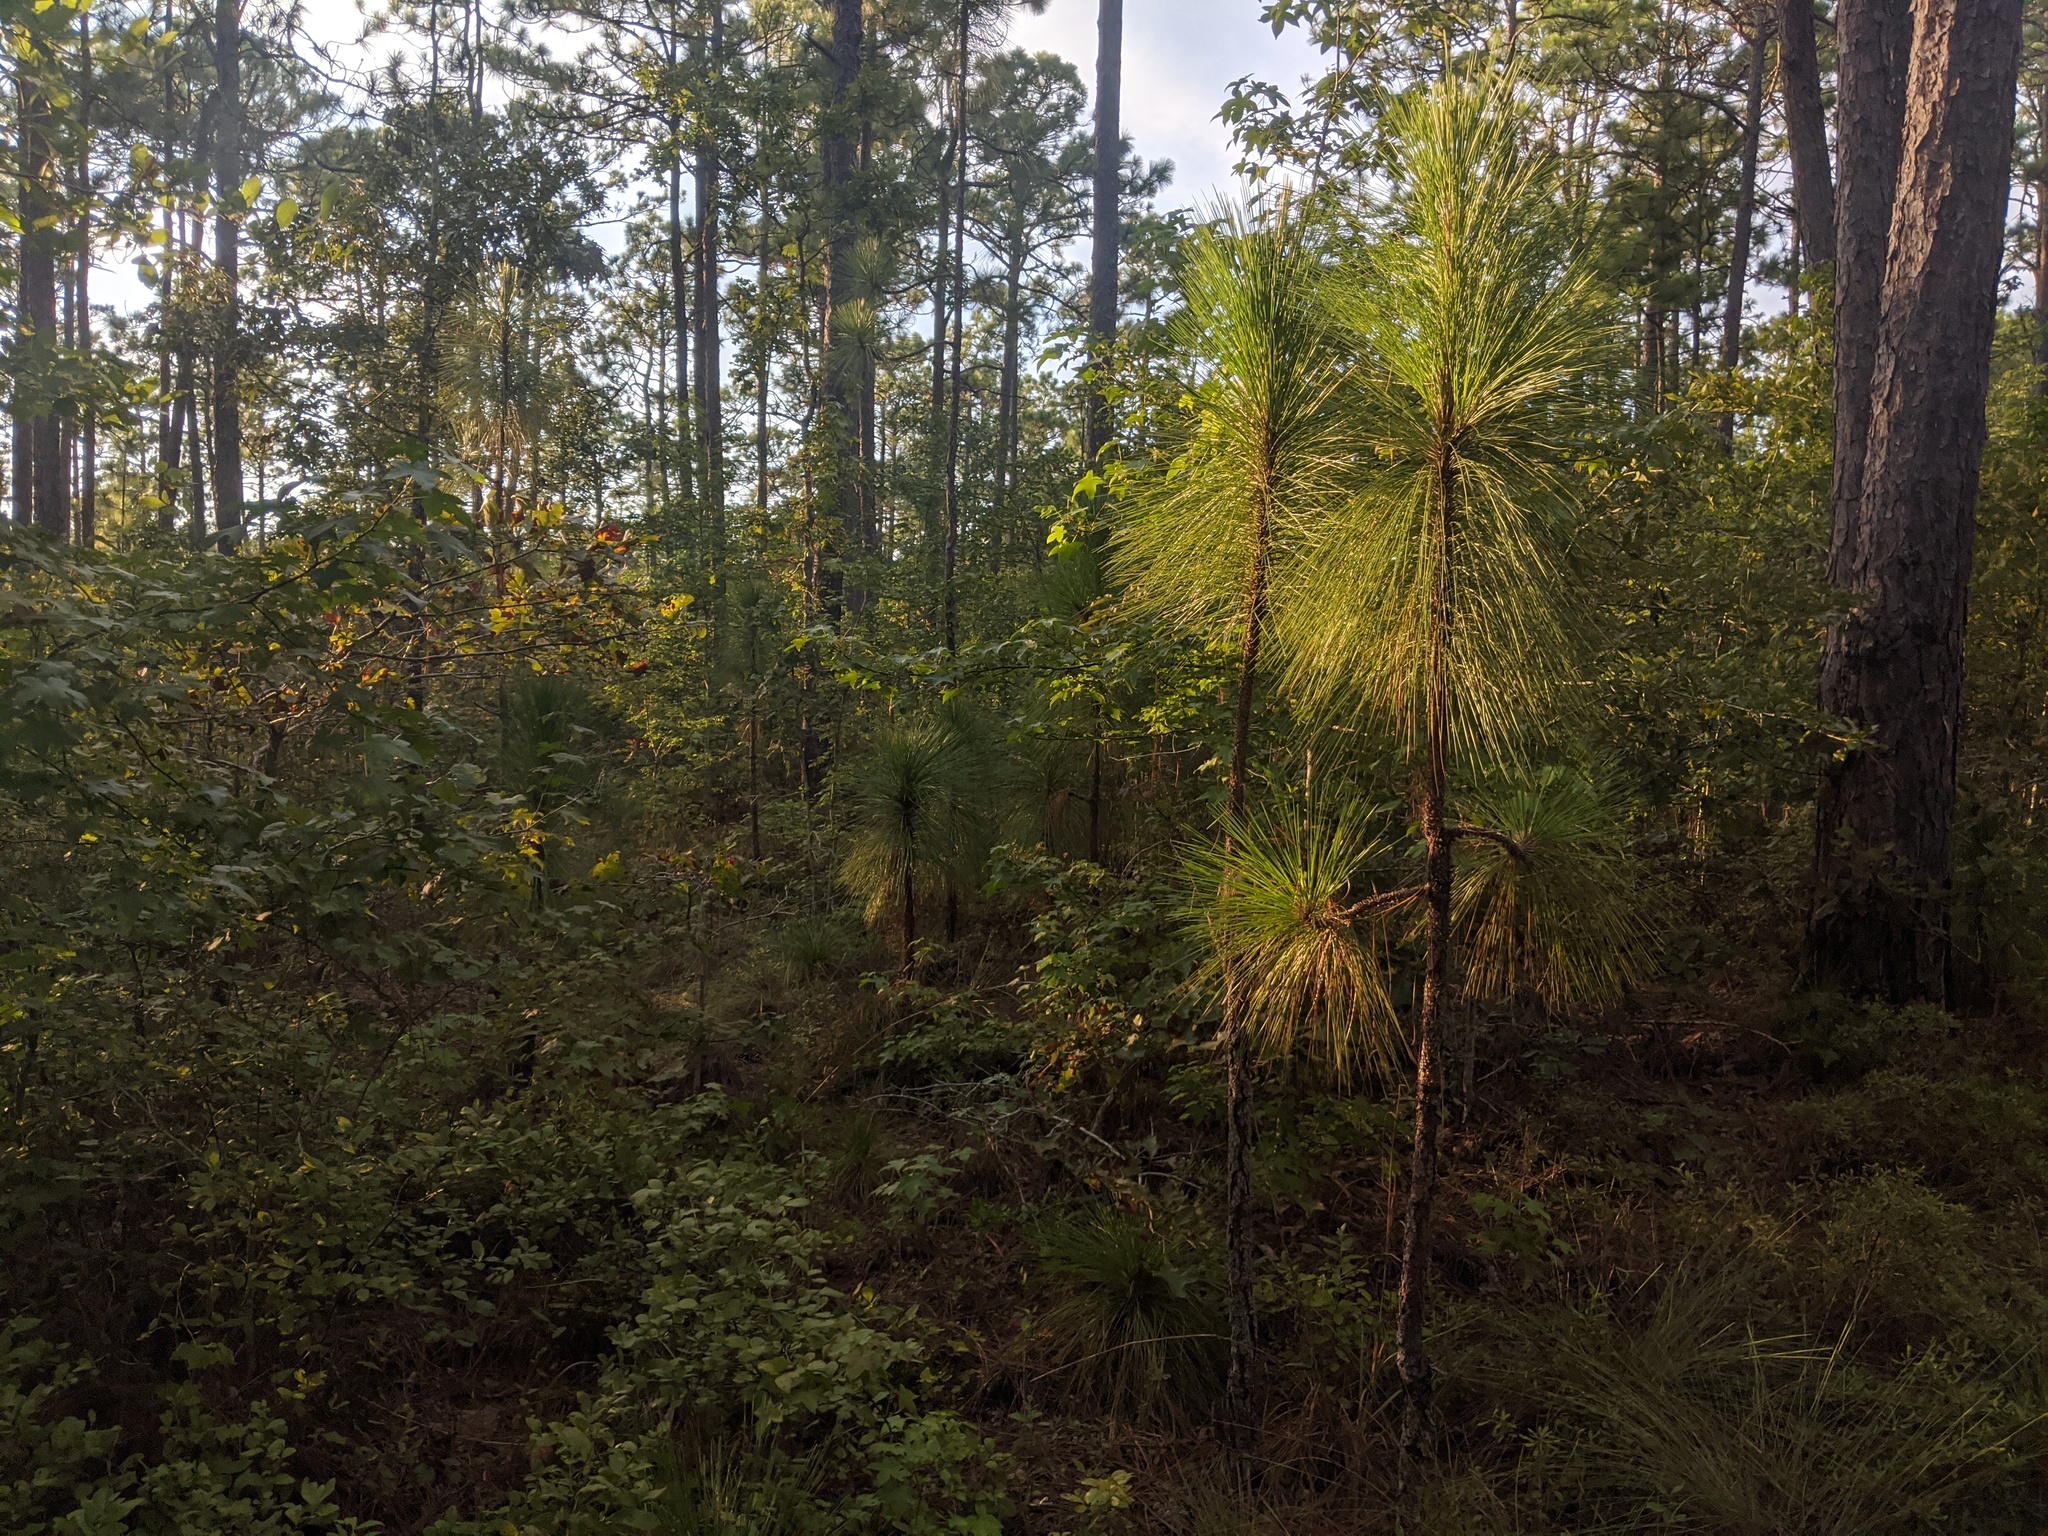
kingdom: Plantae
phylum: Tracheophyta
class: Pinopsida
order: Pinales
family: Pinaceae
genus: Pinus
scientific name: Pinus palustris
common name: Longleaf pine
